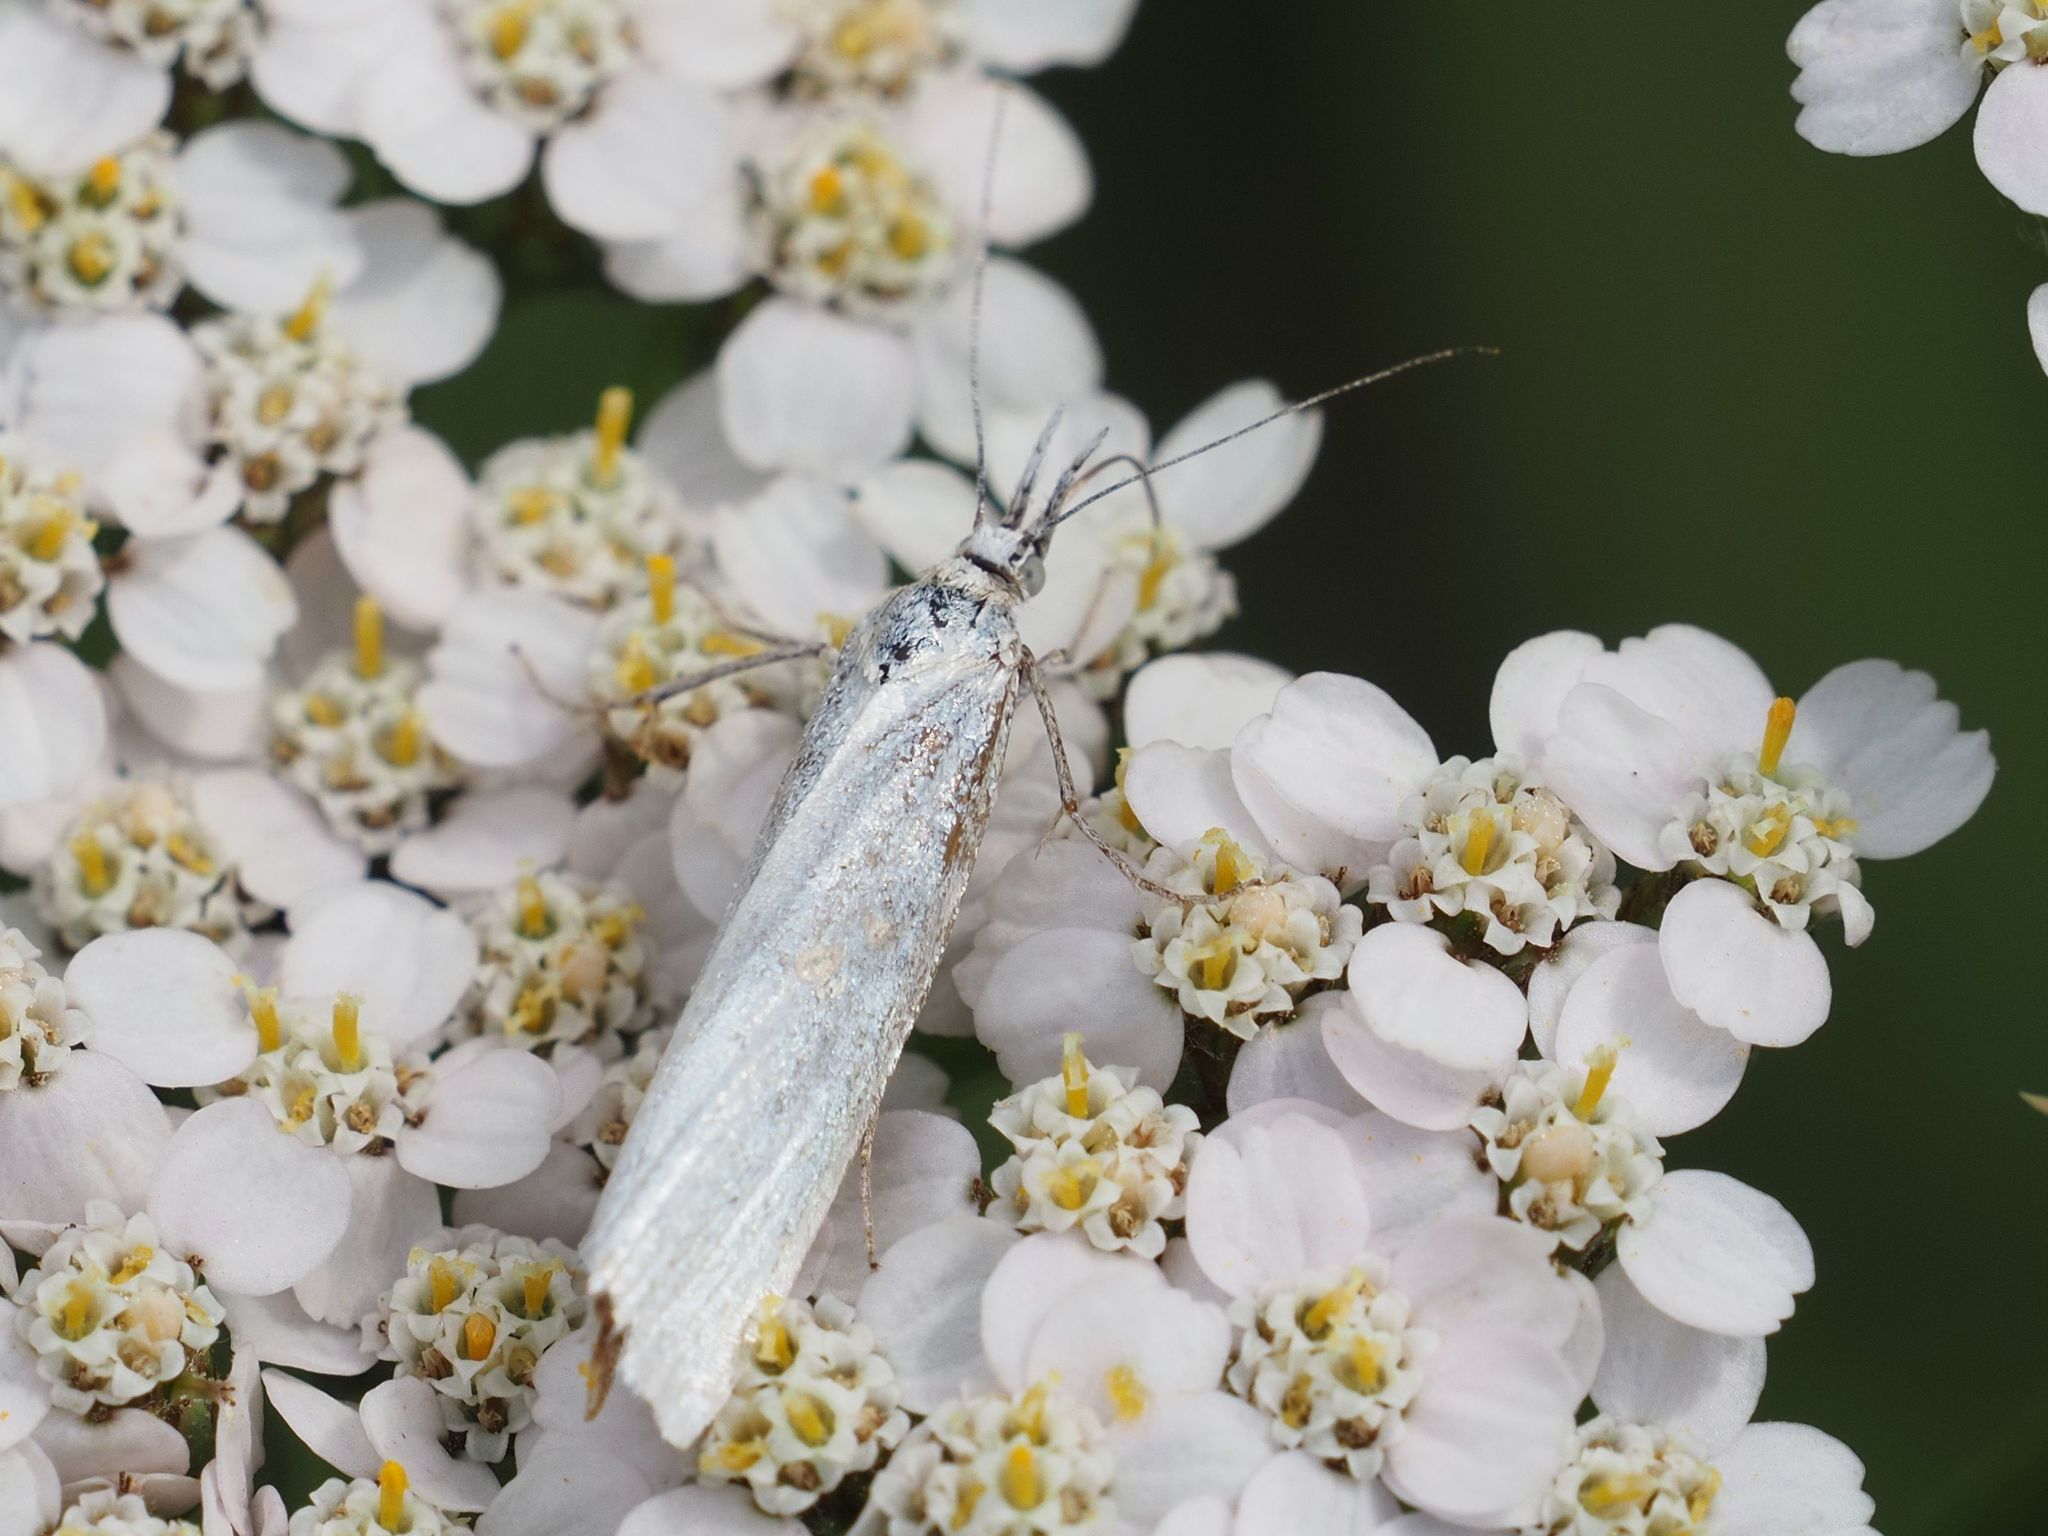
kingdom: Animalia
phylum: Arthropoda
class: Insecta
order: Lepidoptera
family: Crambidae
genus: Crambus
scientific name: Crambus perlellus
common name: Yellow satin veneer
